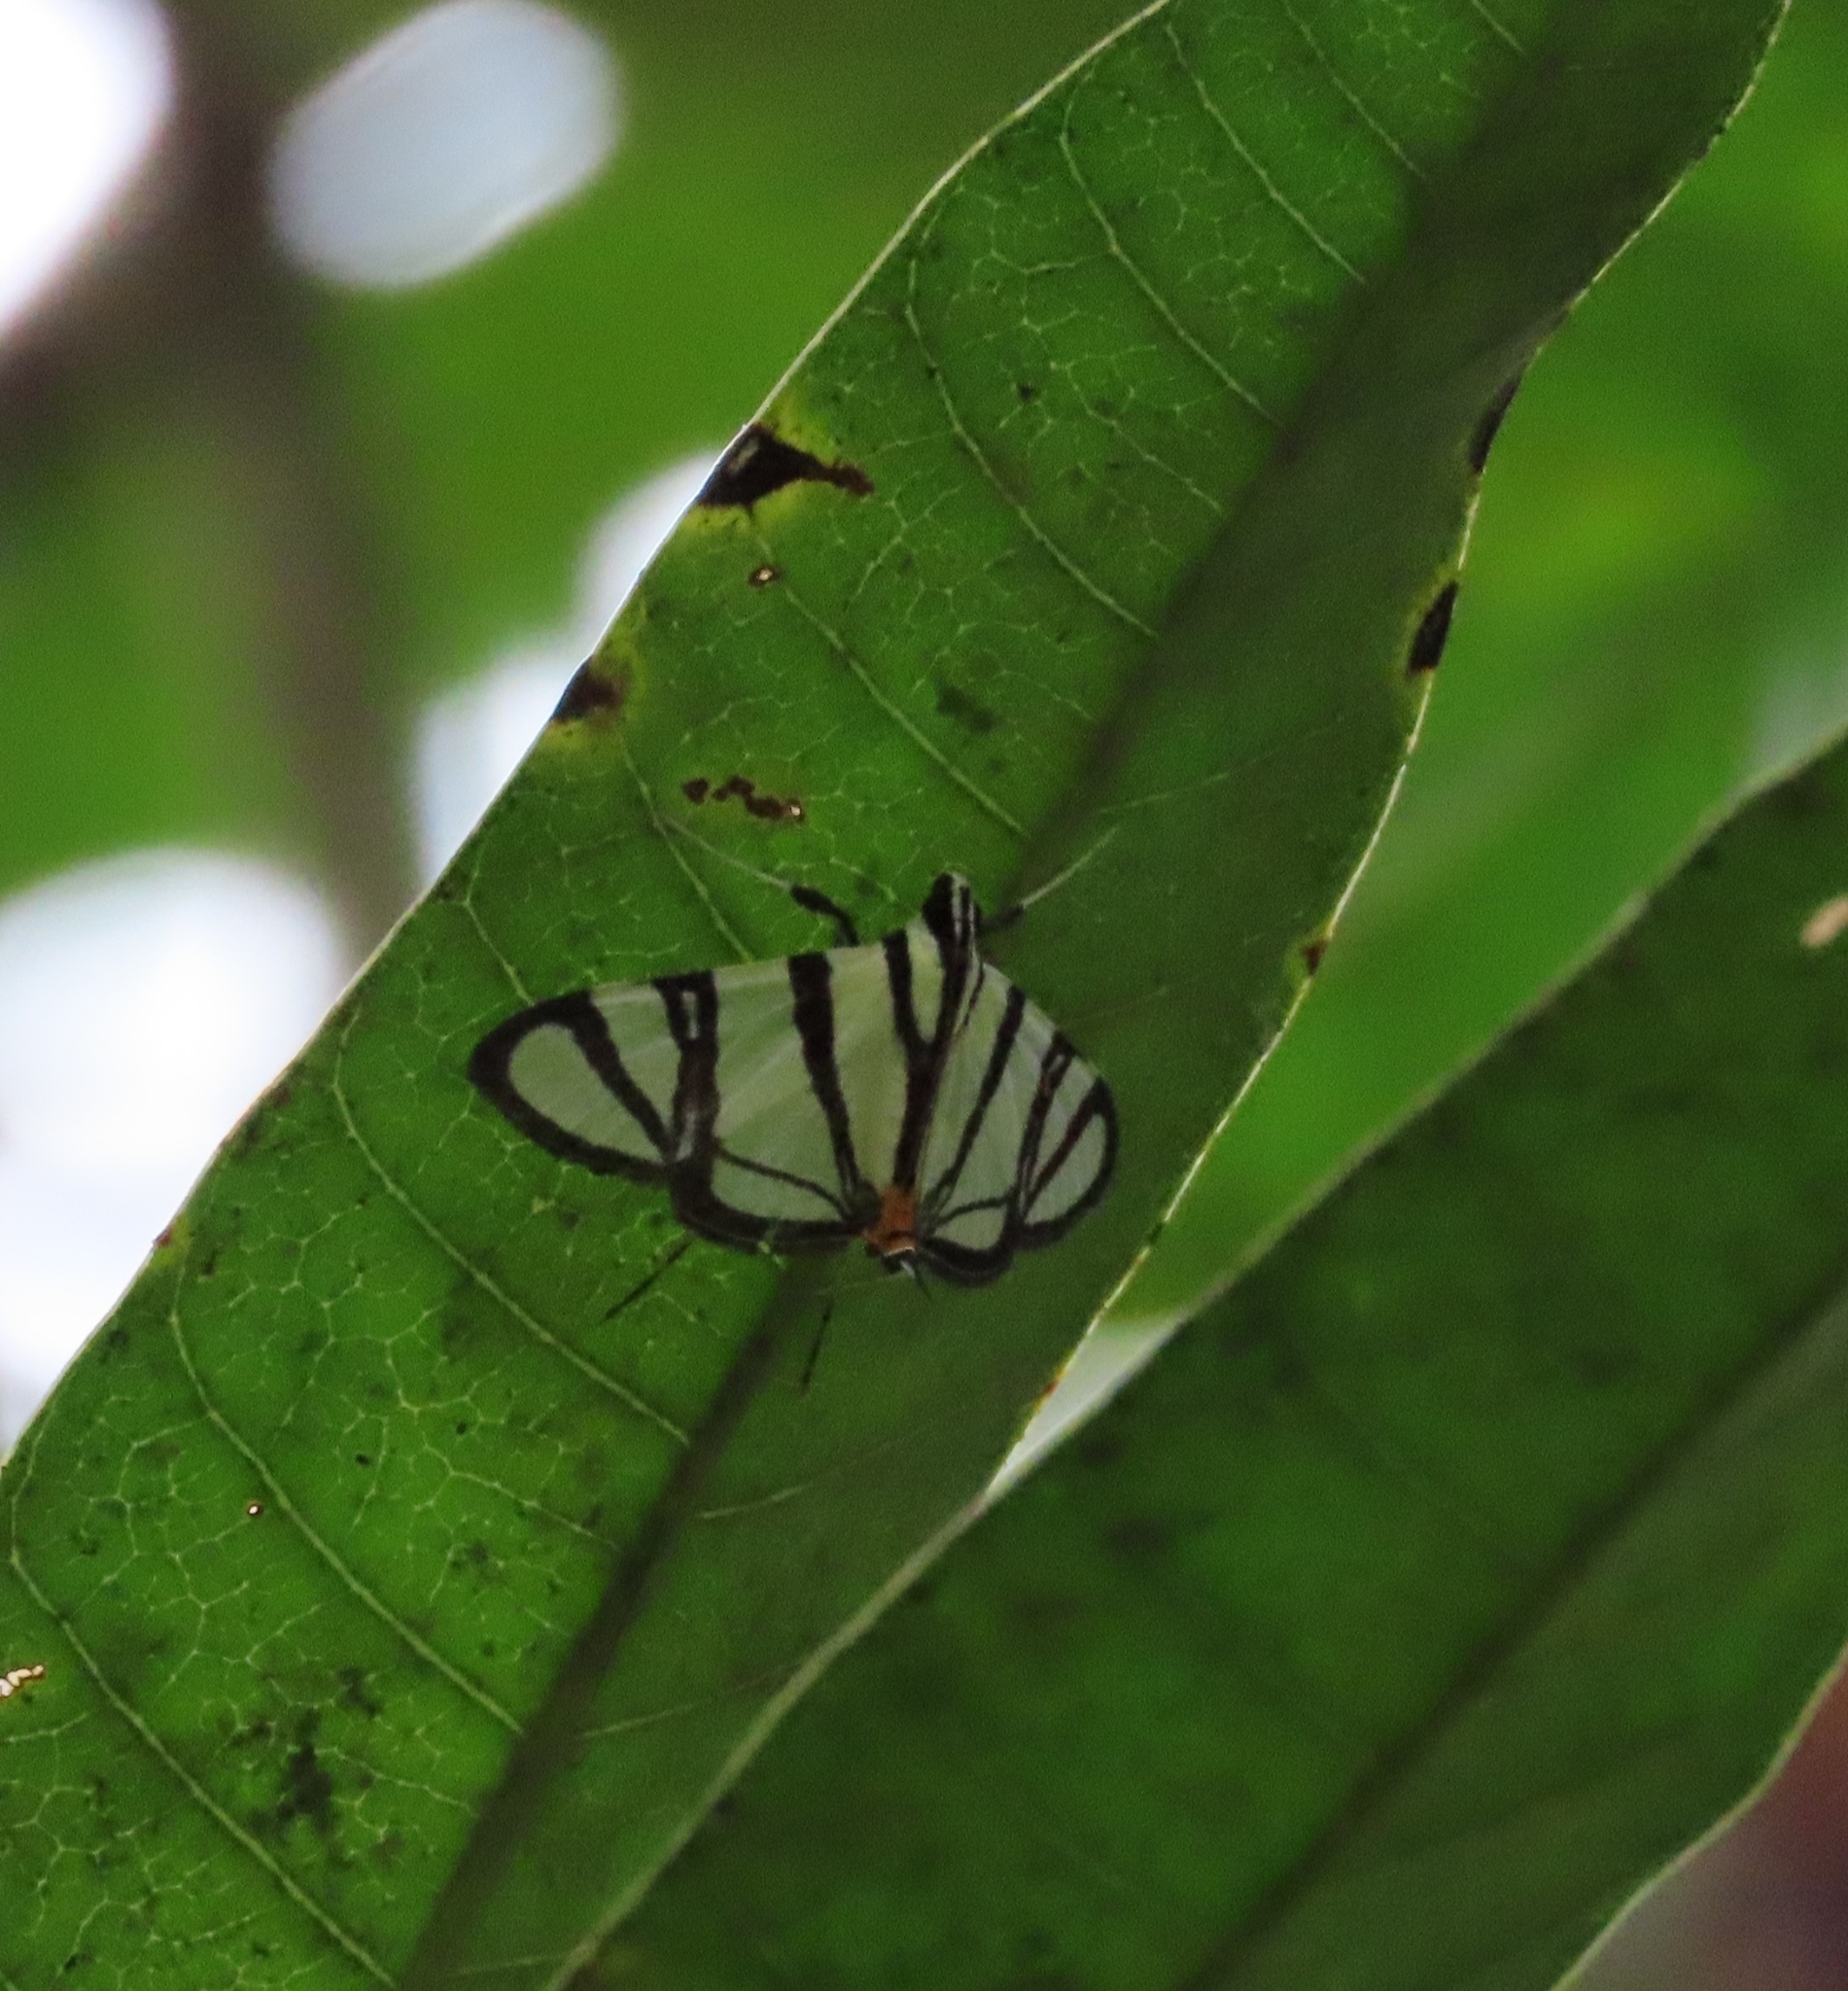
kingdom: Animalia
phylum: Arthropoda
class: Insecta
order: Lepidoptera
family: Crambidae
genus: Conchylodes
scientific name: Conchylodes nolckenialis
